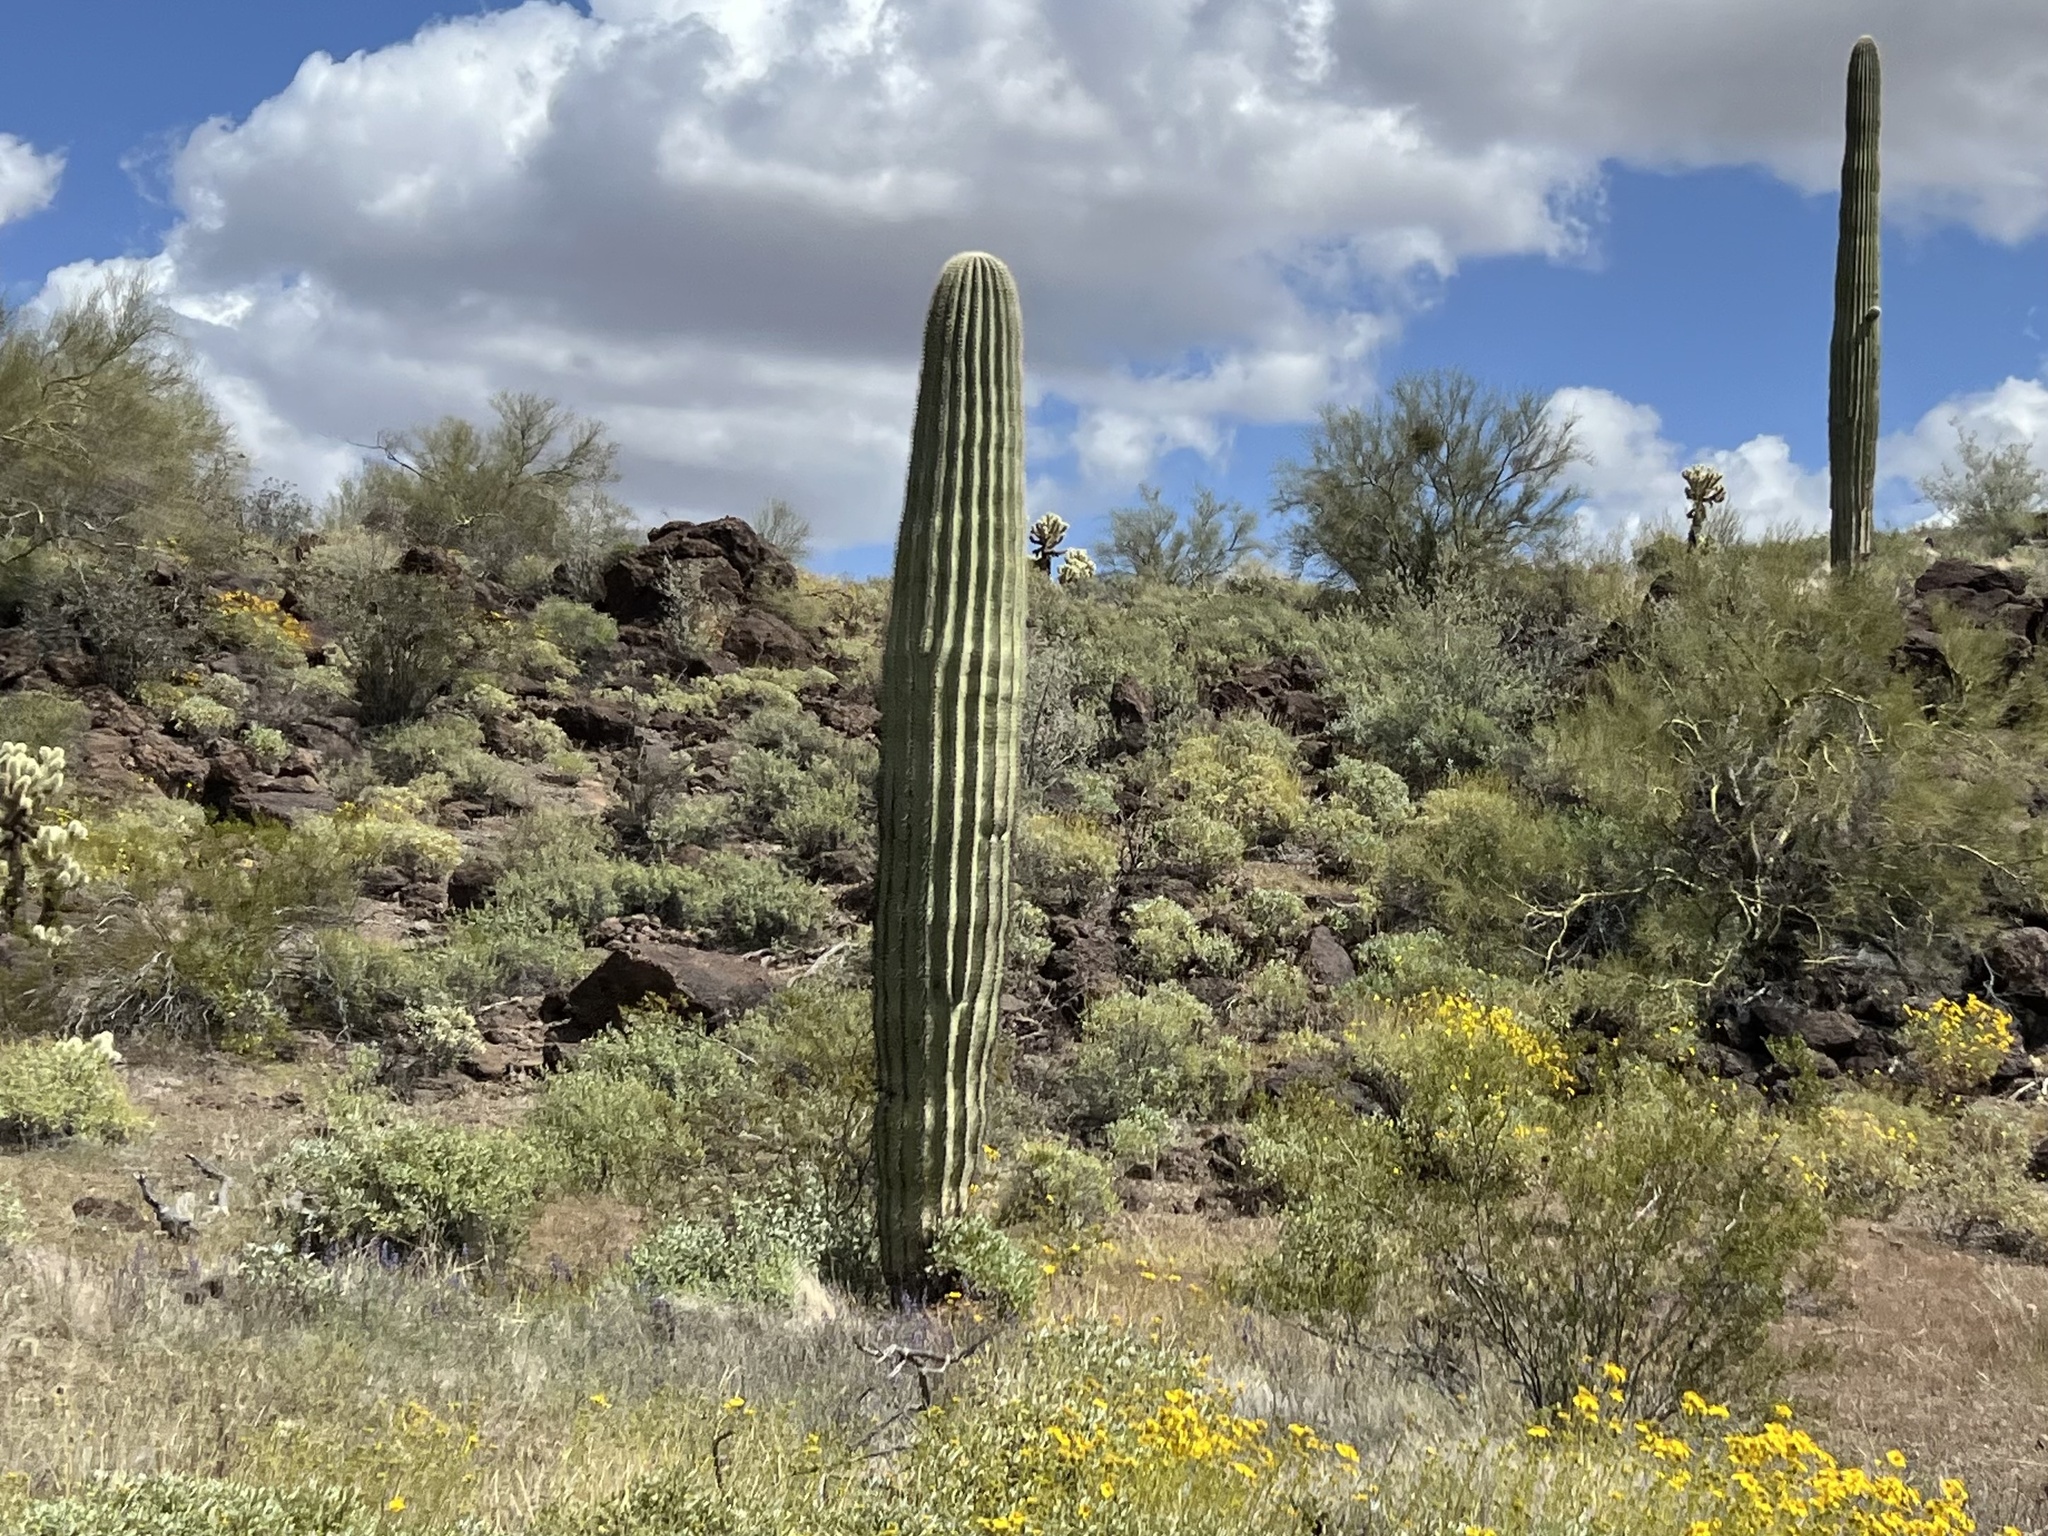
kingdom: Plantae
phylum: Tracheophyta
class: Magnoliopsida
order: Caryophyllales
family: Cactaceae
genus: Carnegiea
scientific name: Carnegiea gigantea
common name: Saguaro
